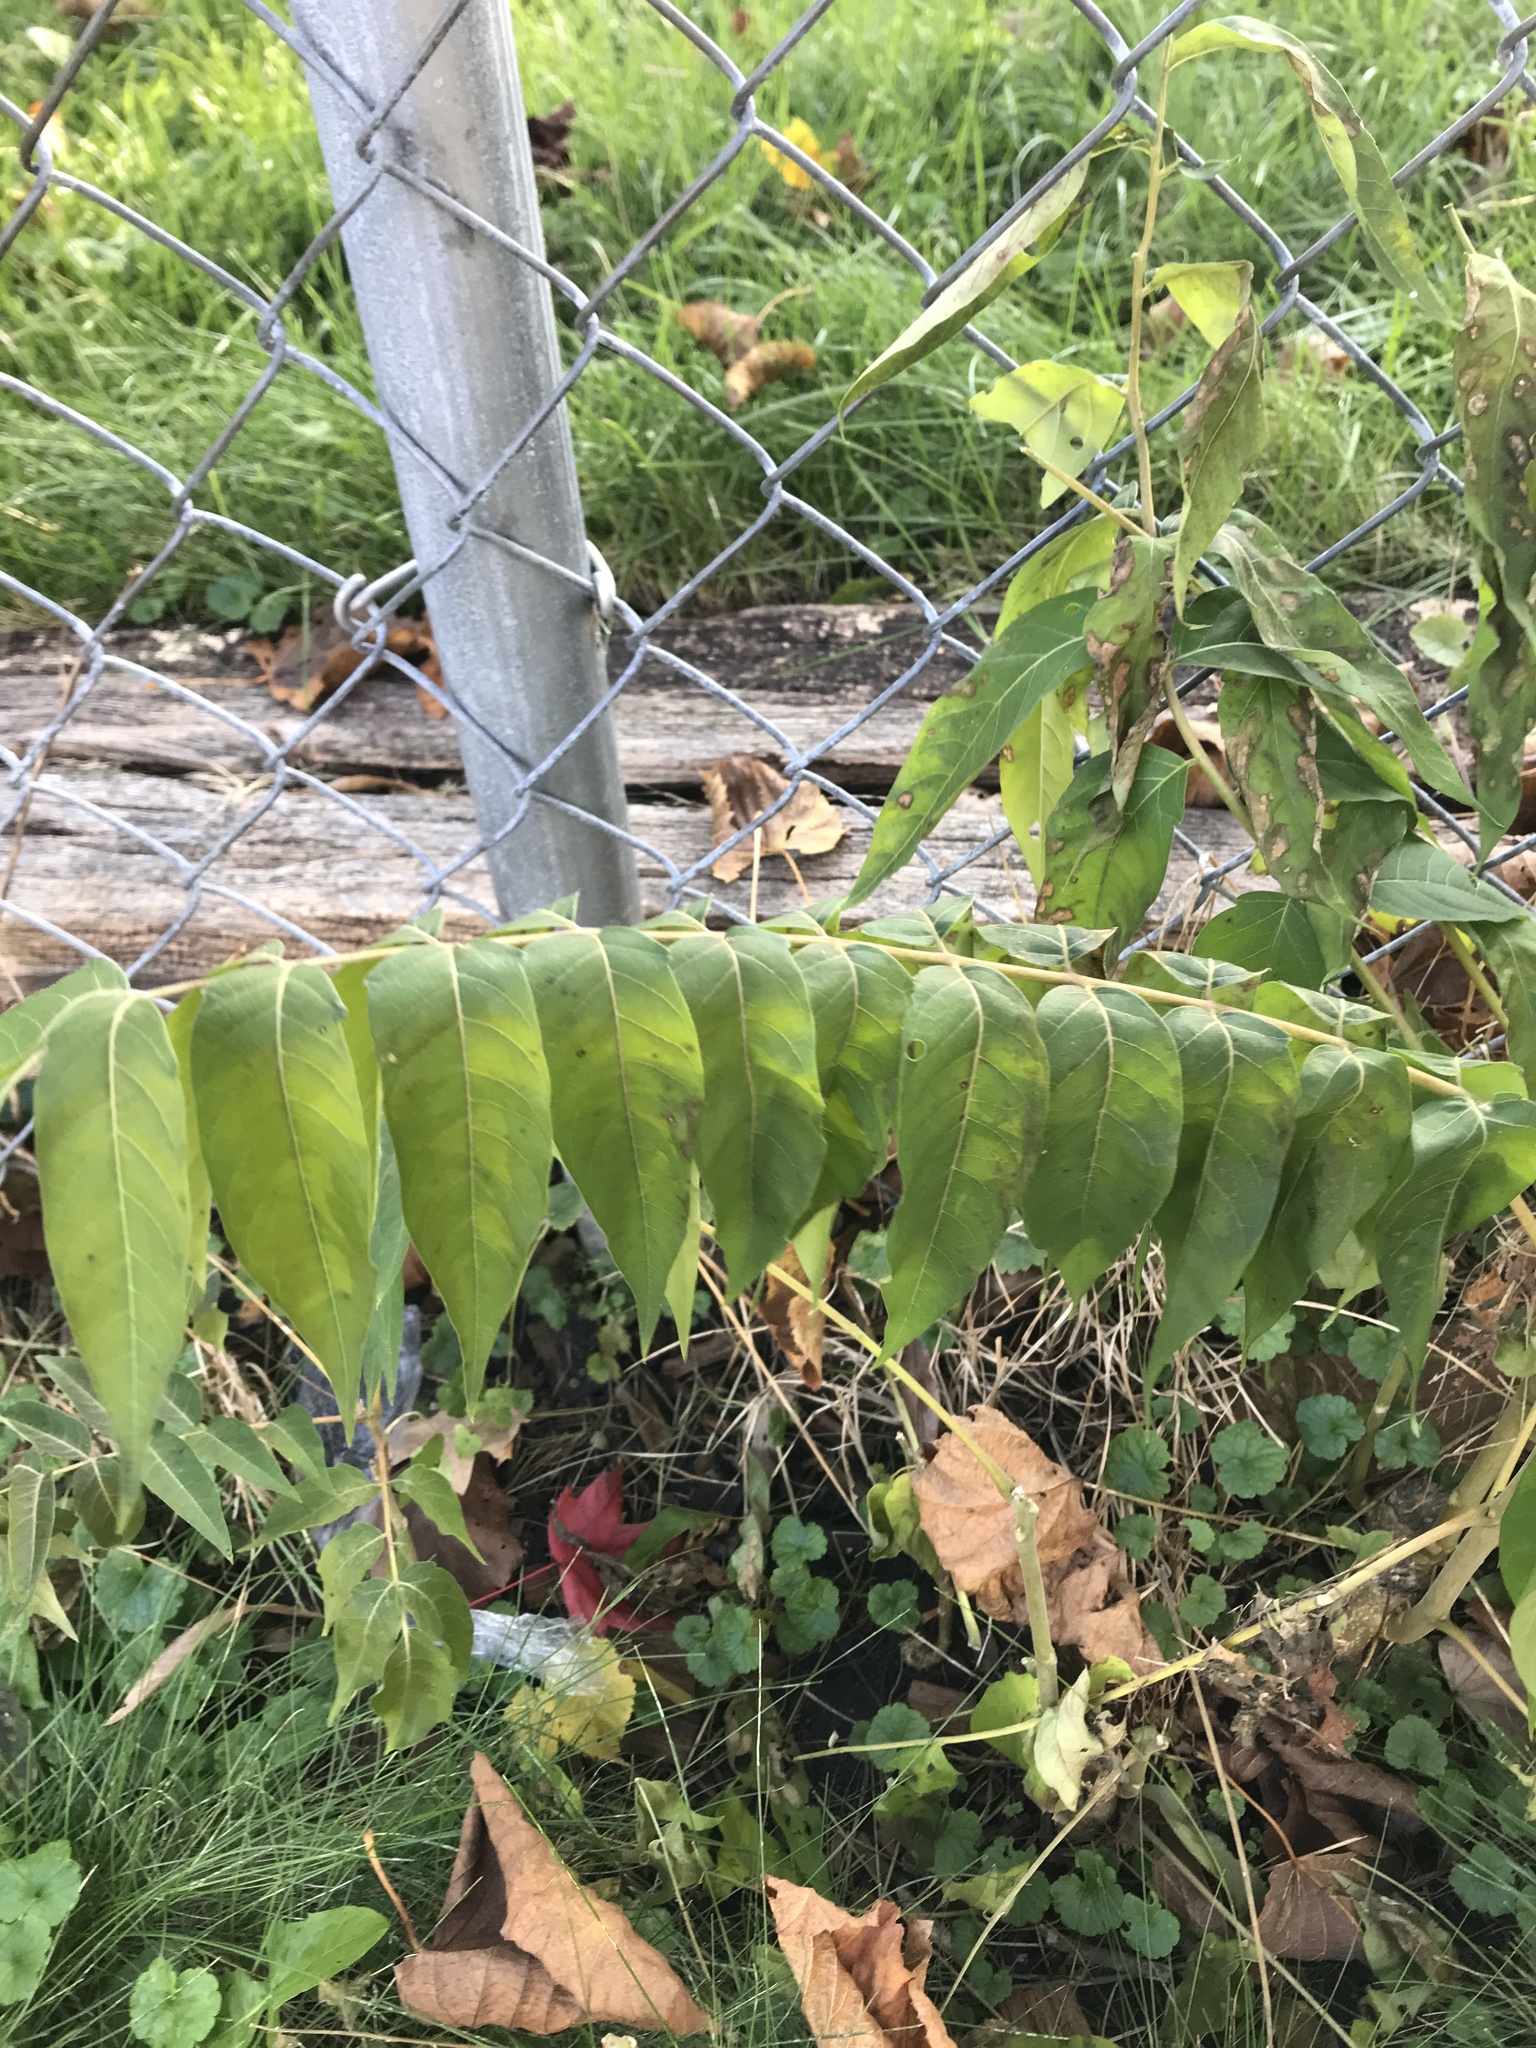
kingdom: Plantae
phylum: Tracheophyta
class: Magnoliopsida
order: Sapindales
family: Simaroubaceae
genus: Ailanthus
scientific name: Ailanthus altissima
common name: Tree-of-heaven
